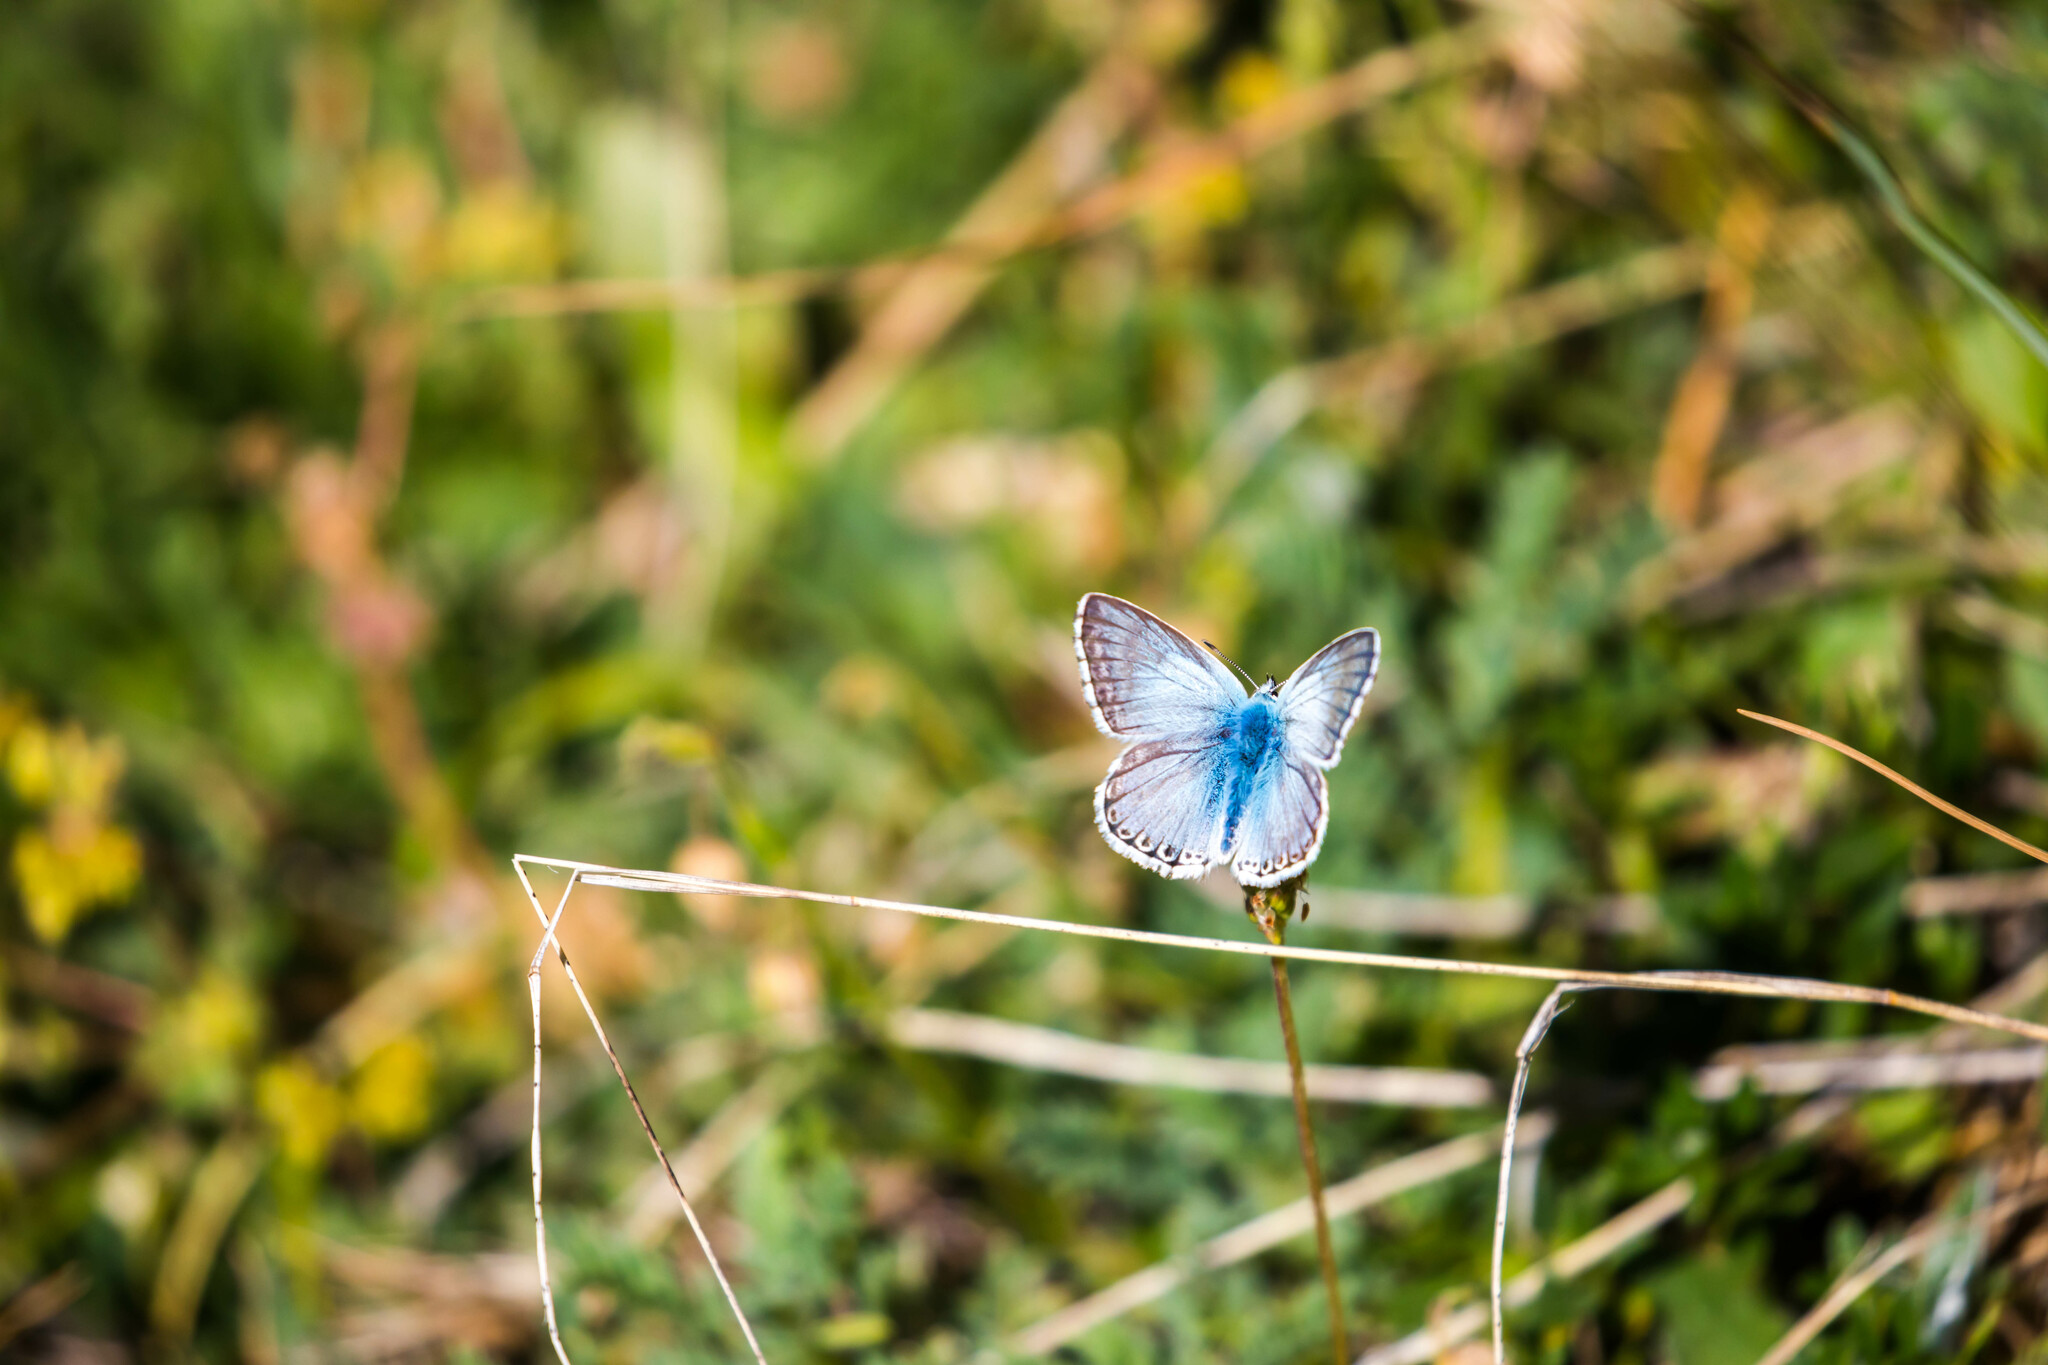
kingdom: Animalia
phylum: Arthropoda
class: Insecta
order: Lepidoptera
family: Lycaenidae
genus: Lysandra
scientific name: Lysandra coridon
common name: Chalkhill blue
